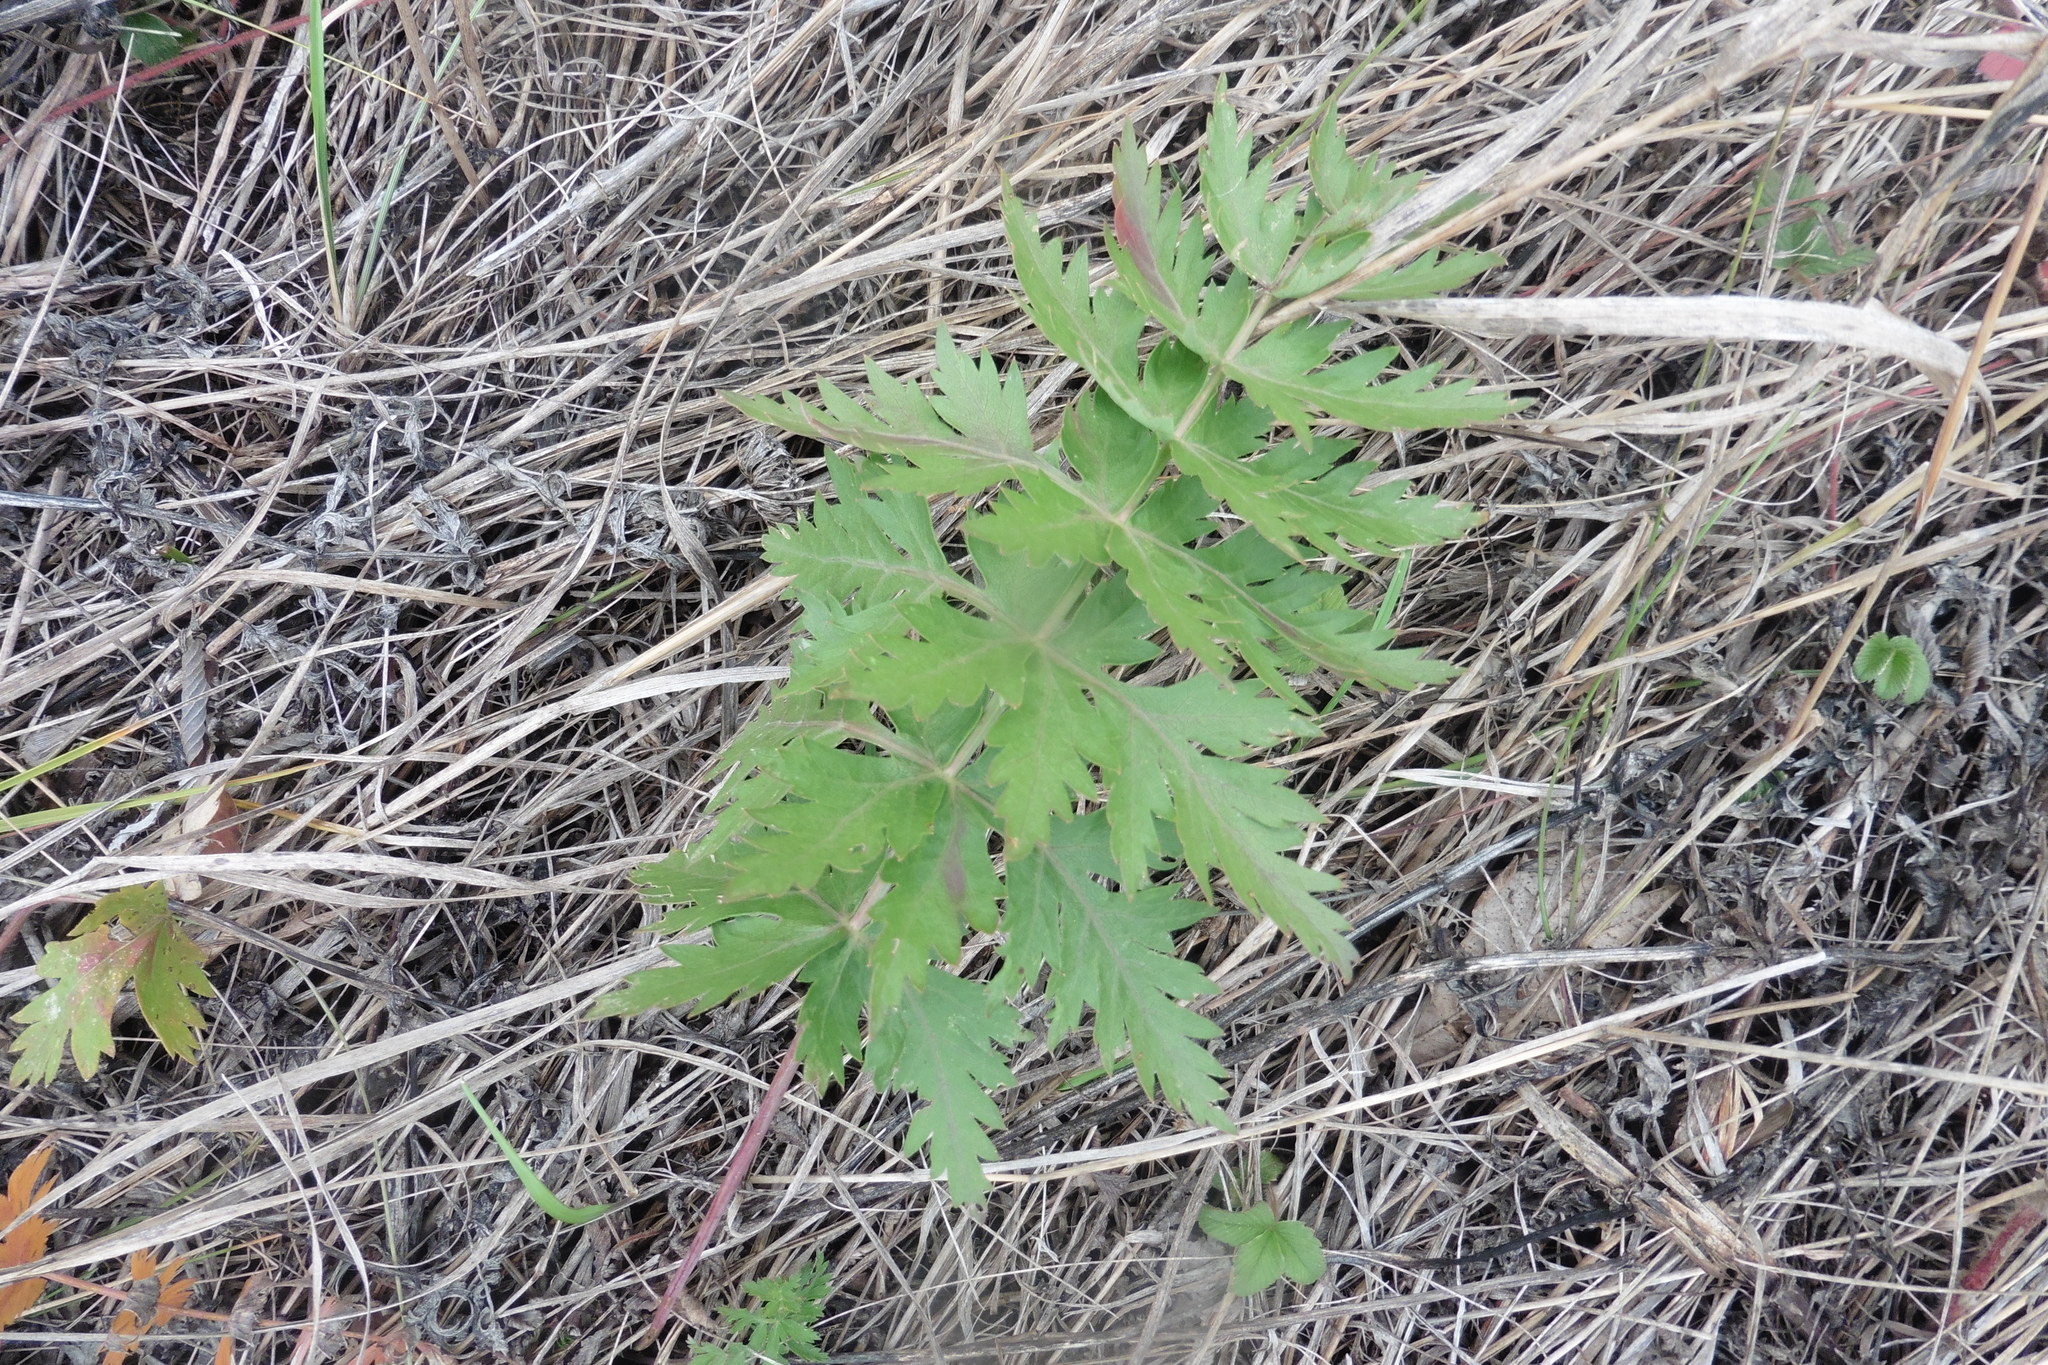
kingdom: Plantae
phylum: Tracheophyta
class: Magnoliopsida
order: Apiales
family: Apiaceae
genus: Seseli
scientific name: Seseli libanotis
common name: Mooncarrot
